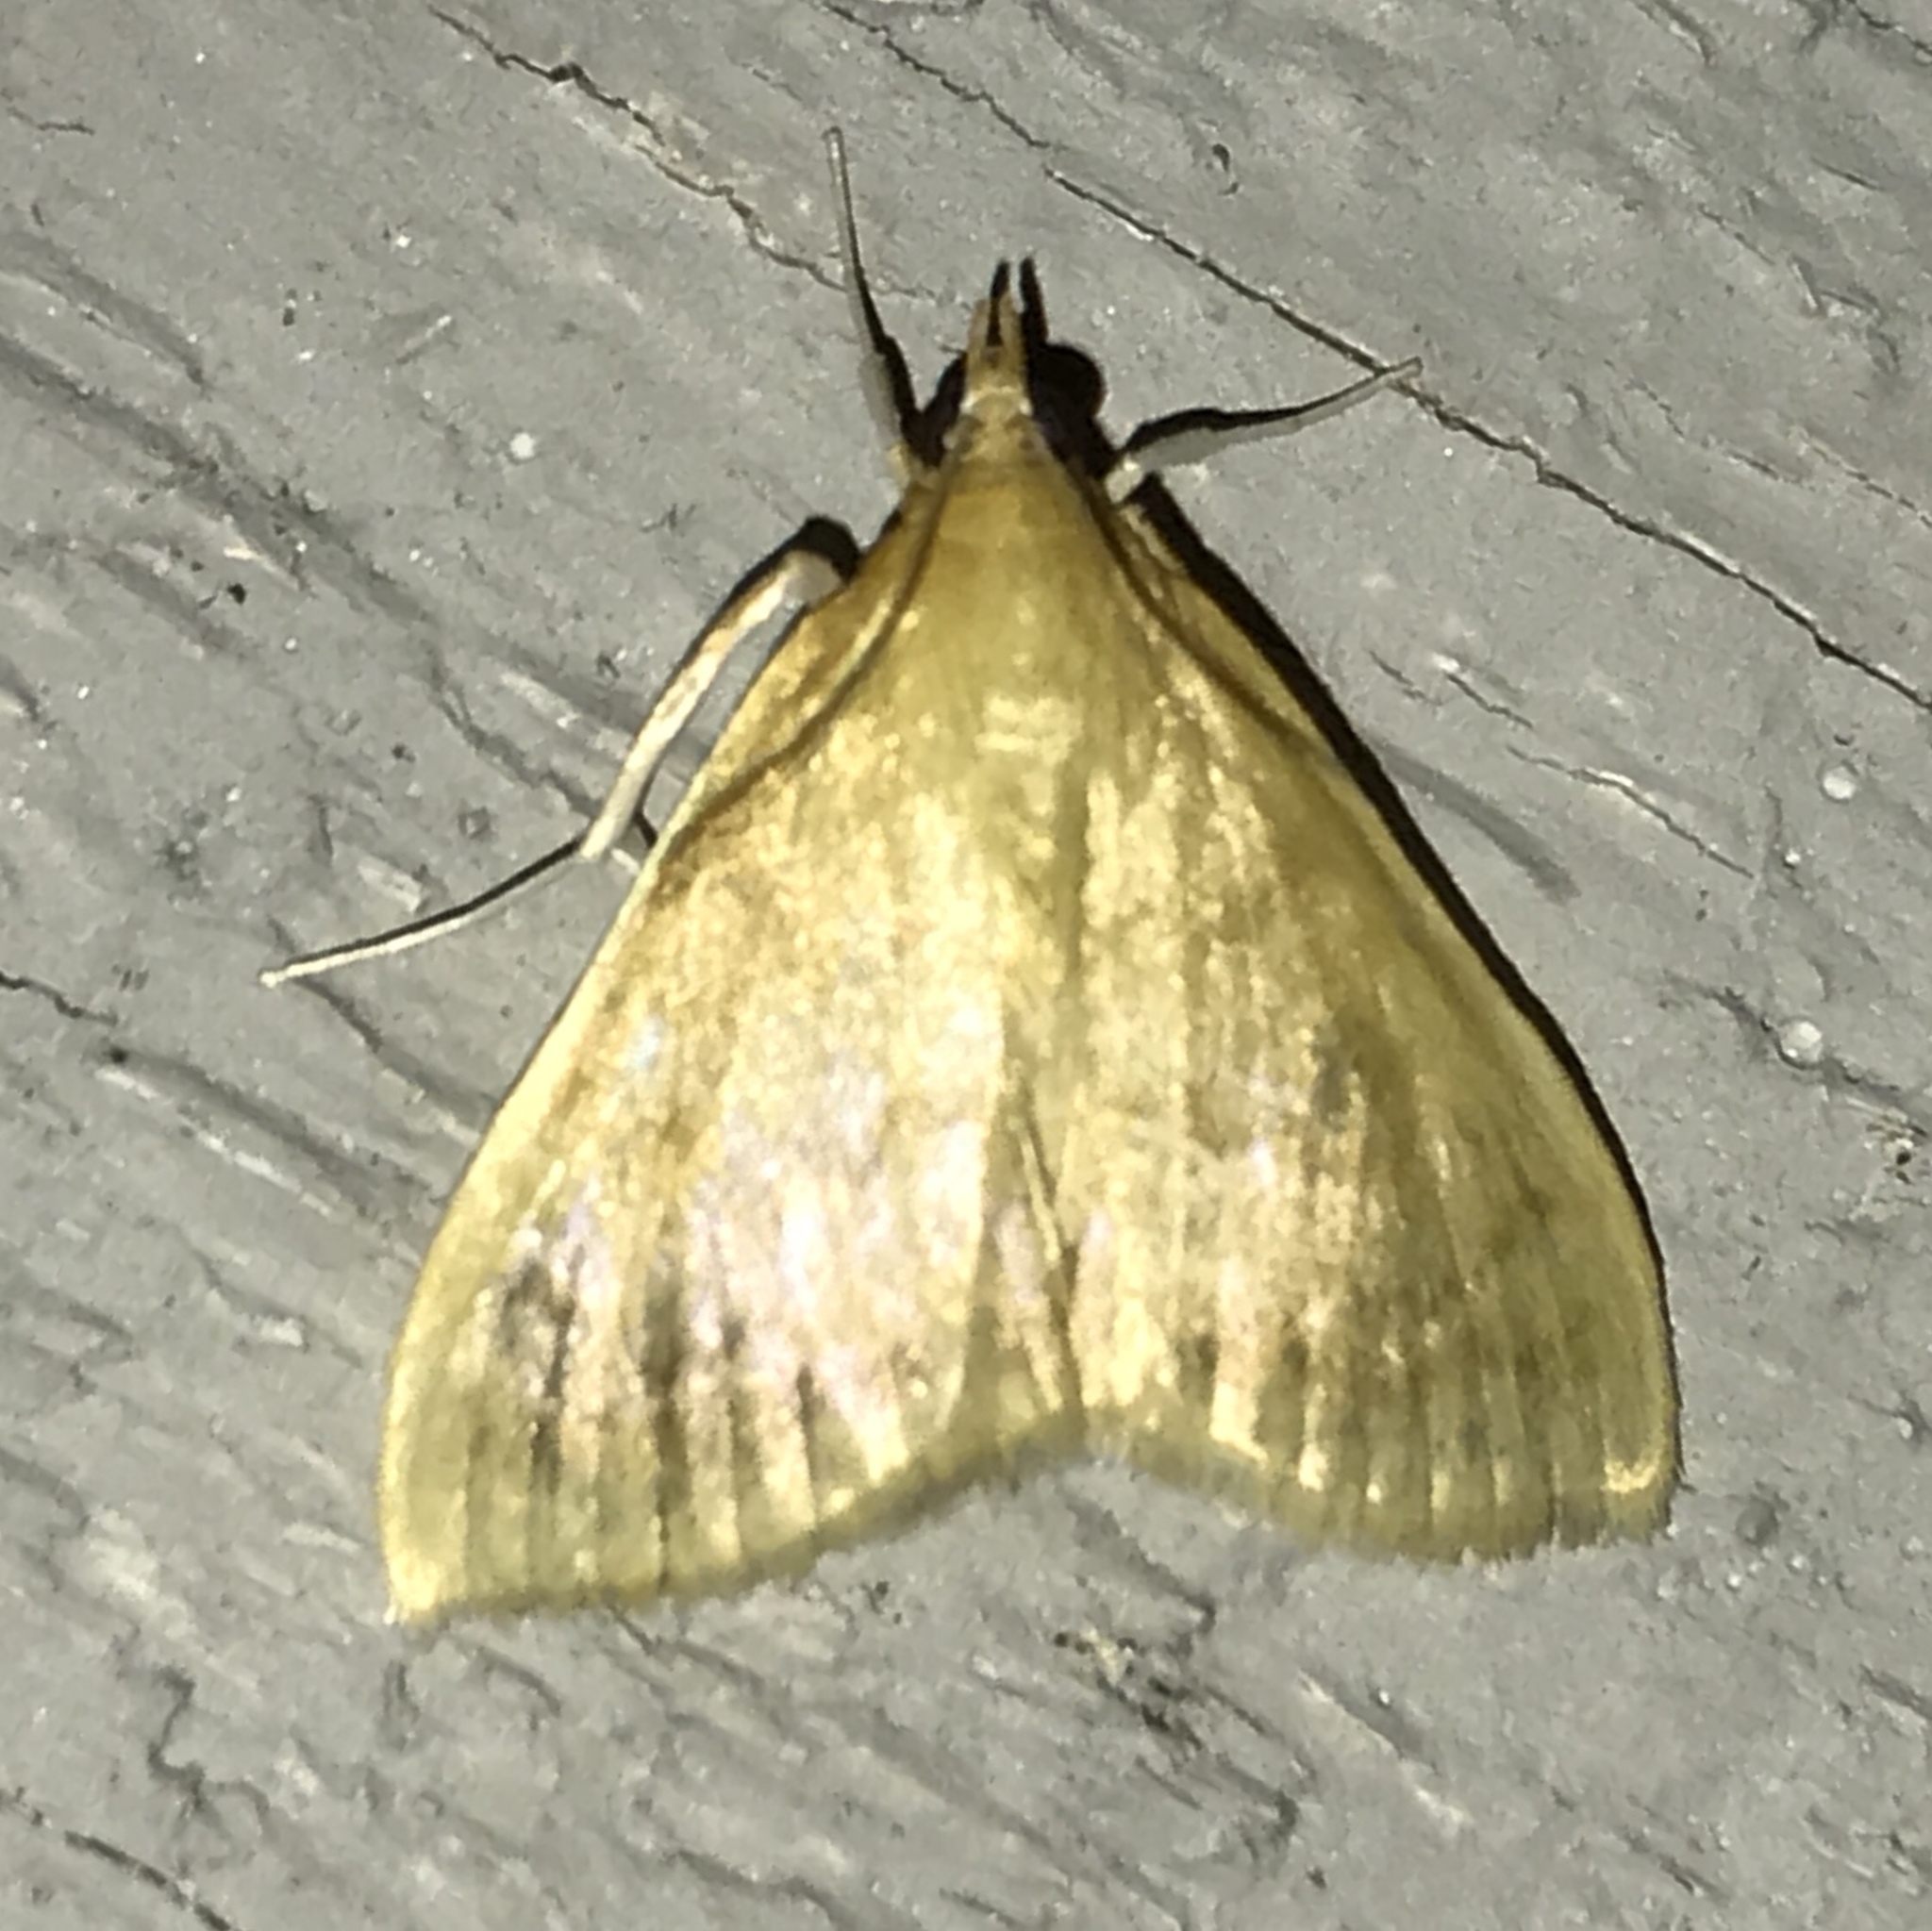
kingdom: Animalia
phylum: Arthropoda
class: Insecta
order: Lepidoptera
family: Crambidae
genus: Hahncappsia
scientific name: Hahncappsia
